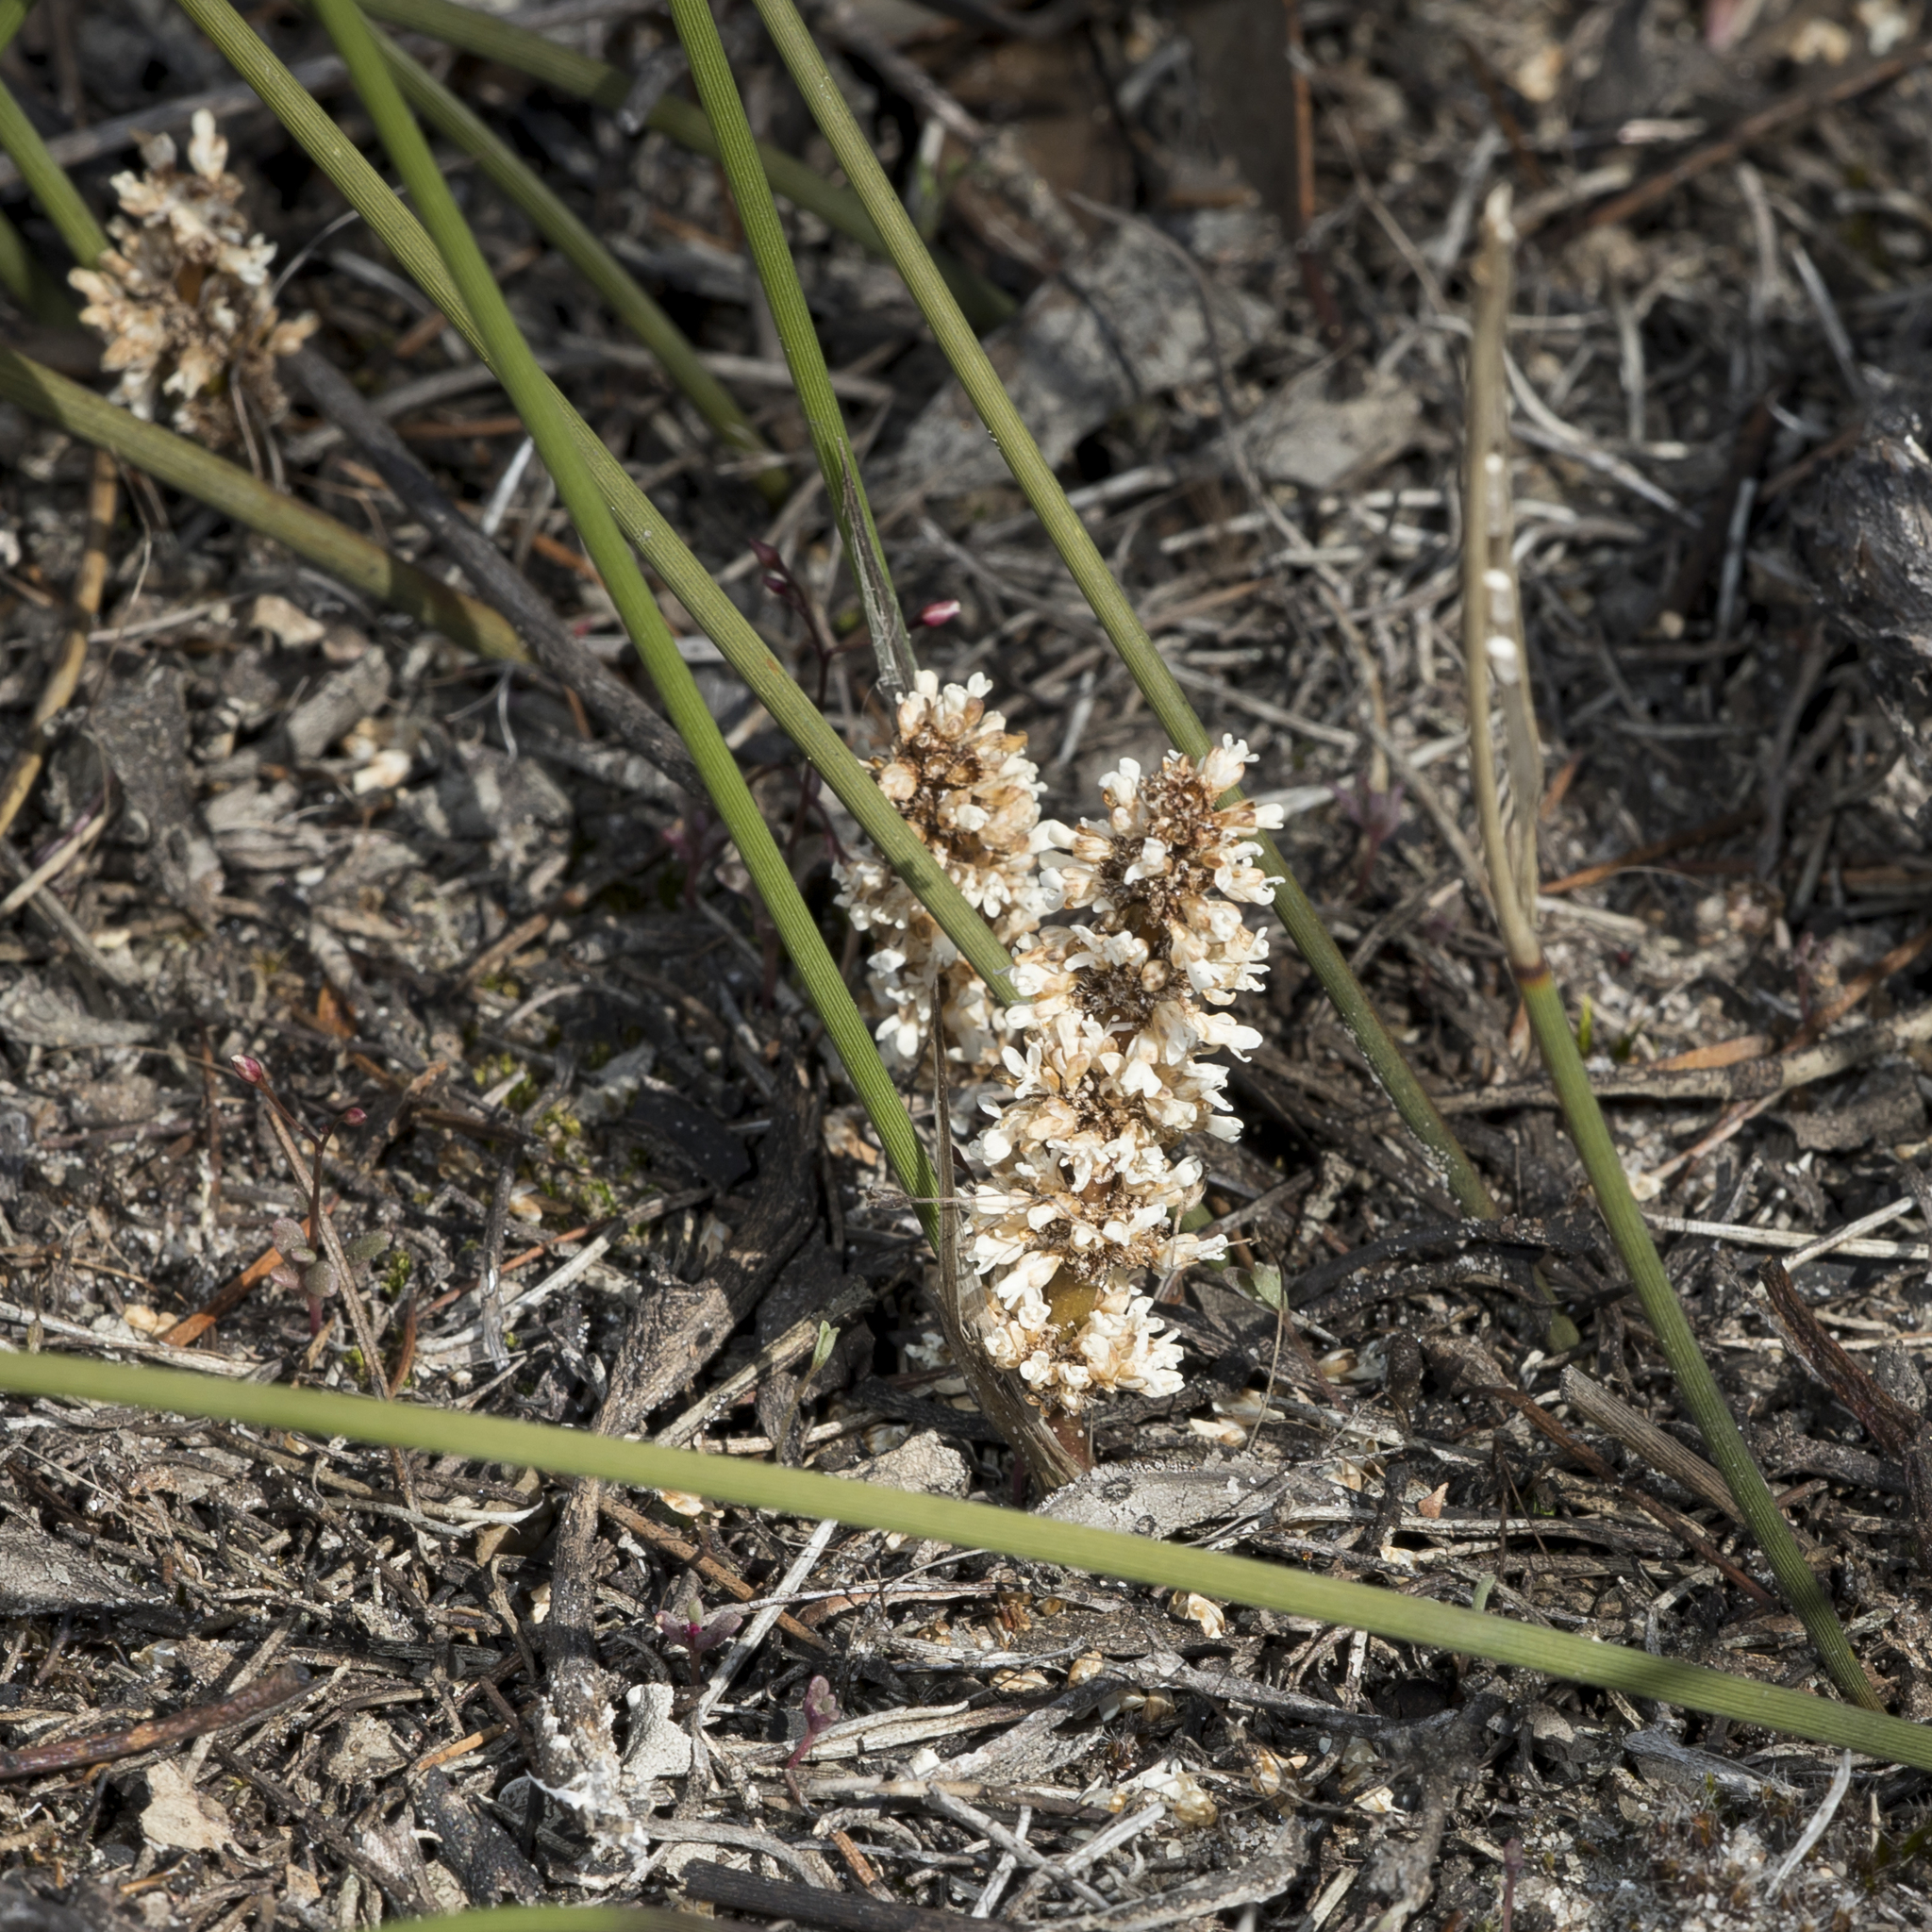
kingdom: Plantae
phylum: Tracheophyta
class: Liliopsida
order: Asparagales
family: Asparagaceae
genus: Lomandra
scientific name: Lomandra juncea
